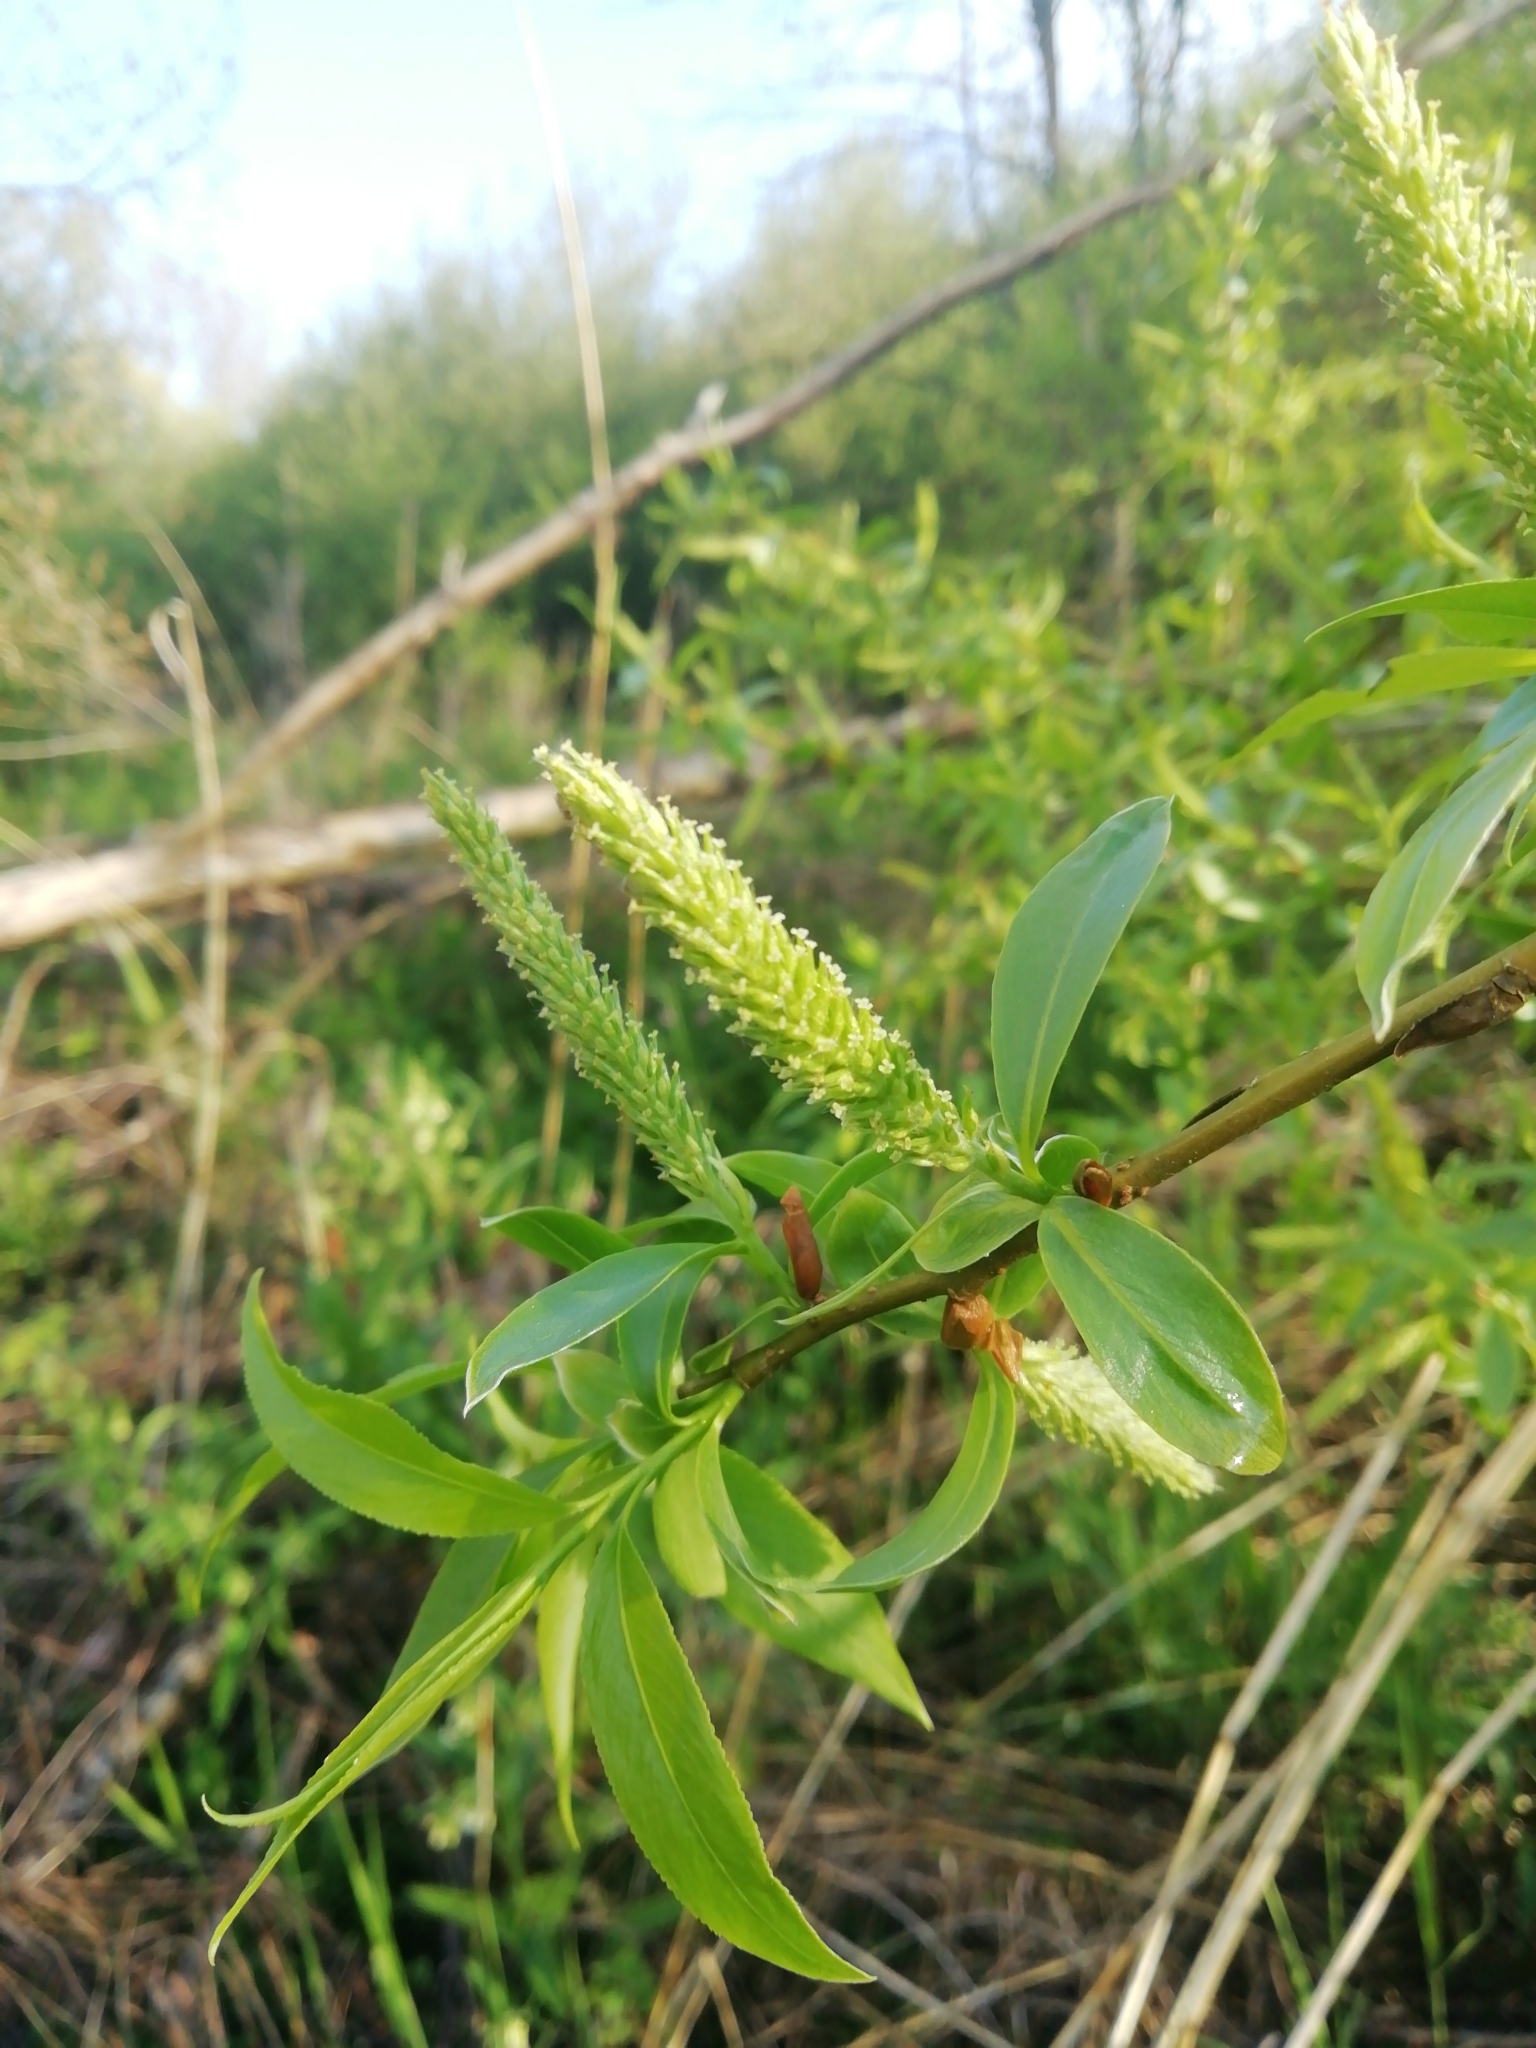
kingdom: Plantae
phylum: Tracheophyta
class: Magnoliopsida
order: Malpighiales
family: Salicaceae
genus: Salix
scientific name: Salix alba
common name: White willow
